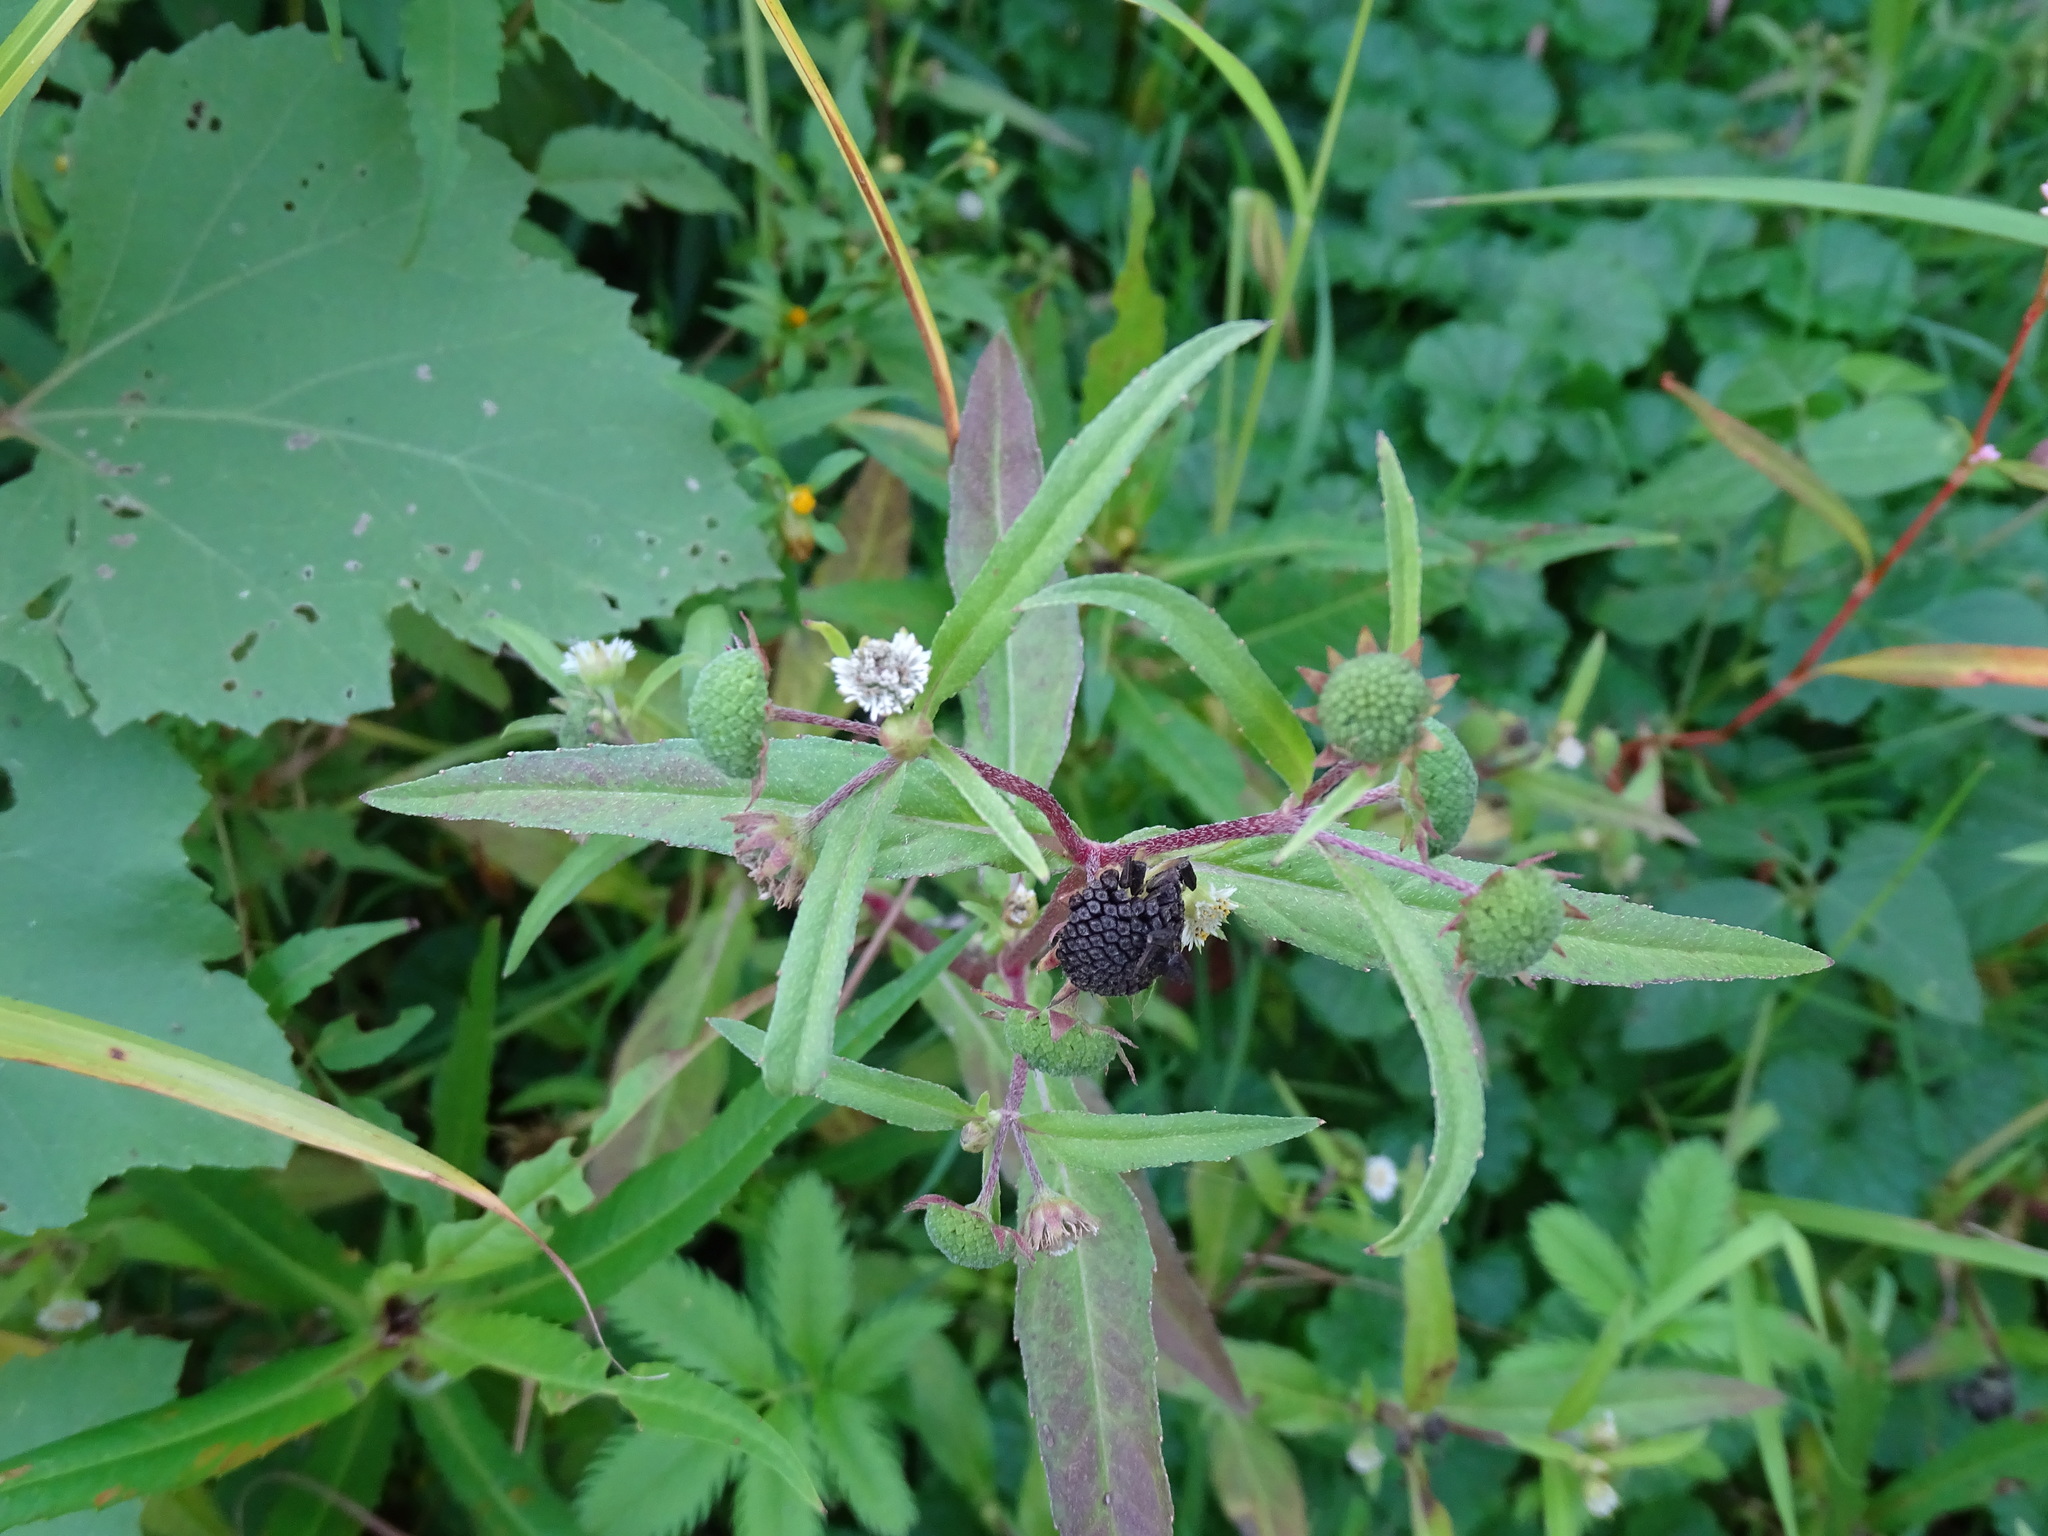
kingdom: Plantae
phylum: Tracheophyta
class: Magnoliopsida
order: Asterales
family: Asteraceae
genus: Eclipta
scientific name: Eclipta prostrata
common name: False daisy
